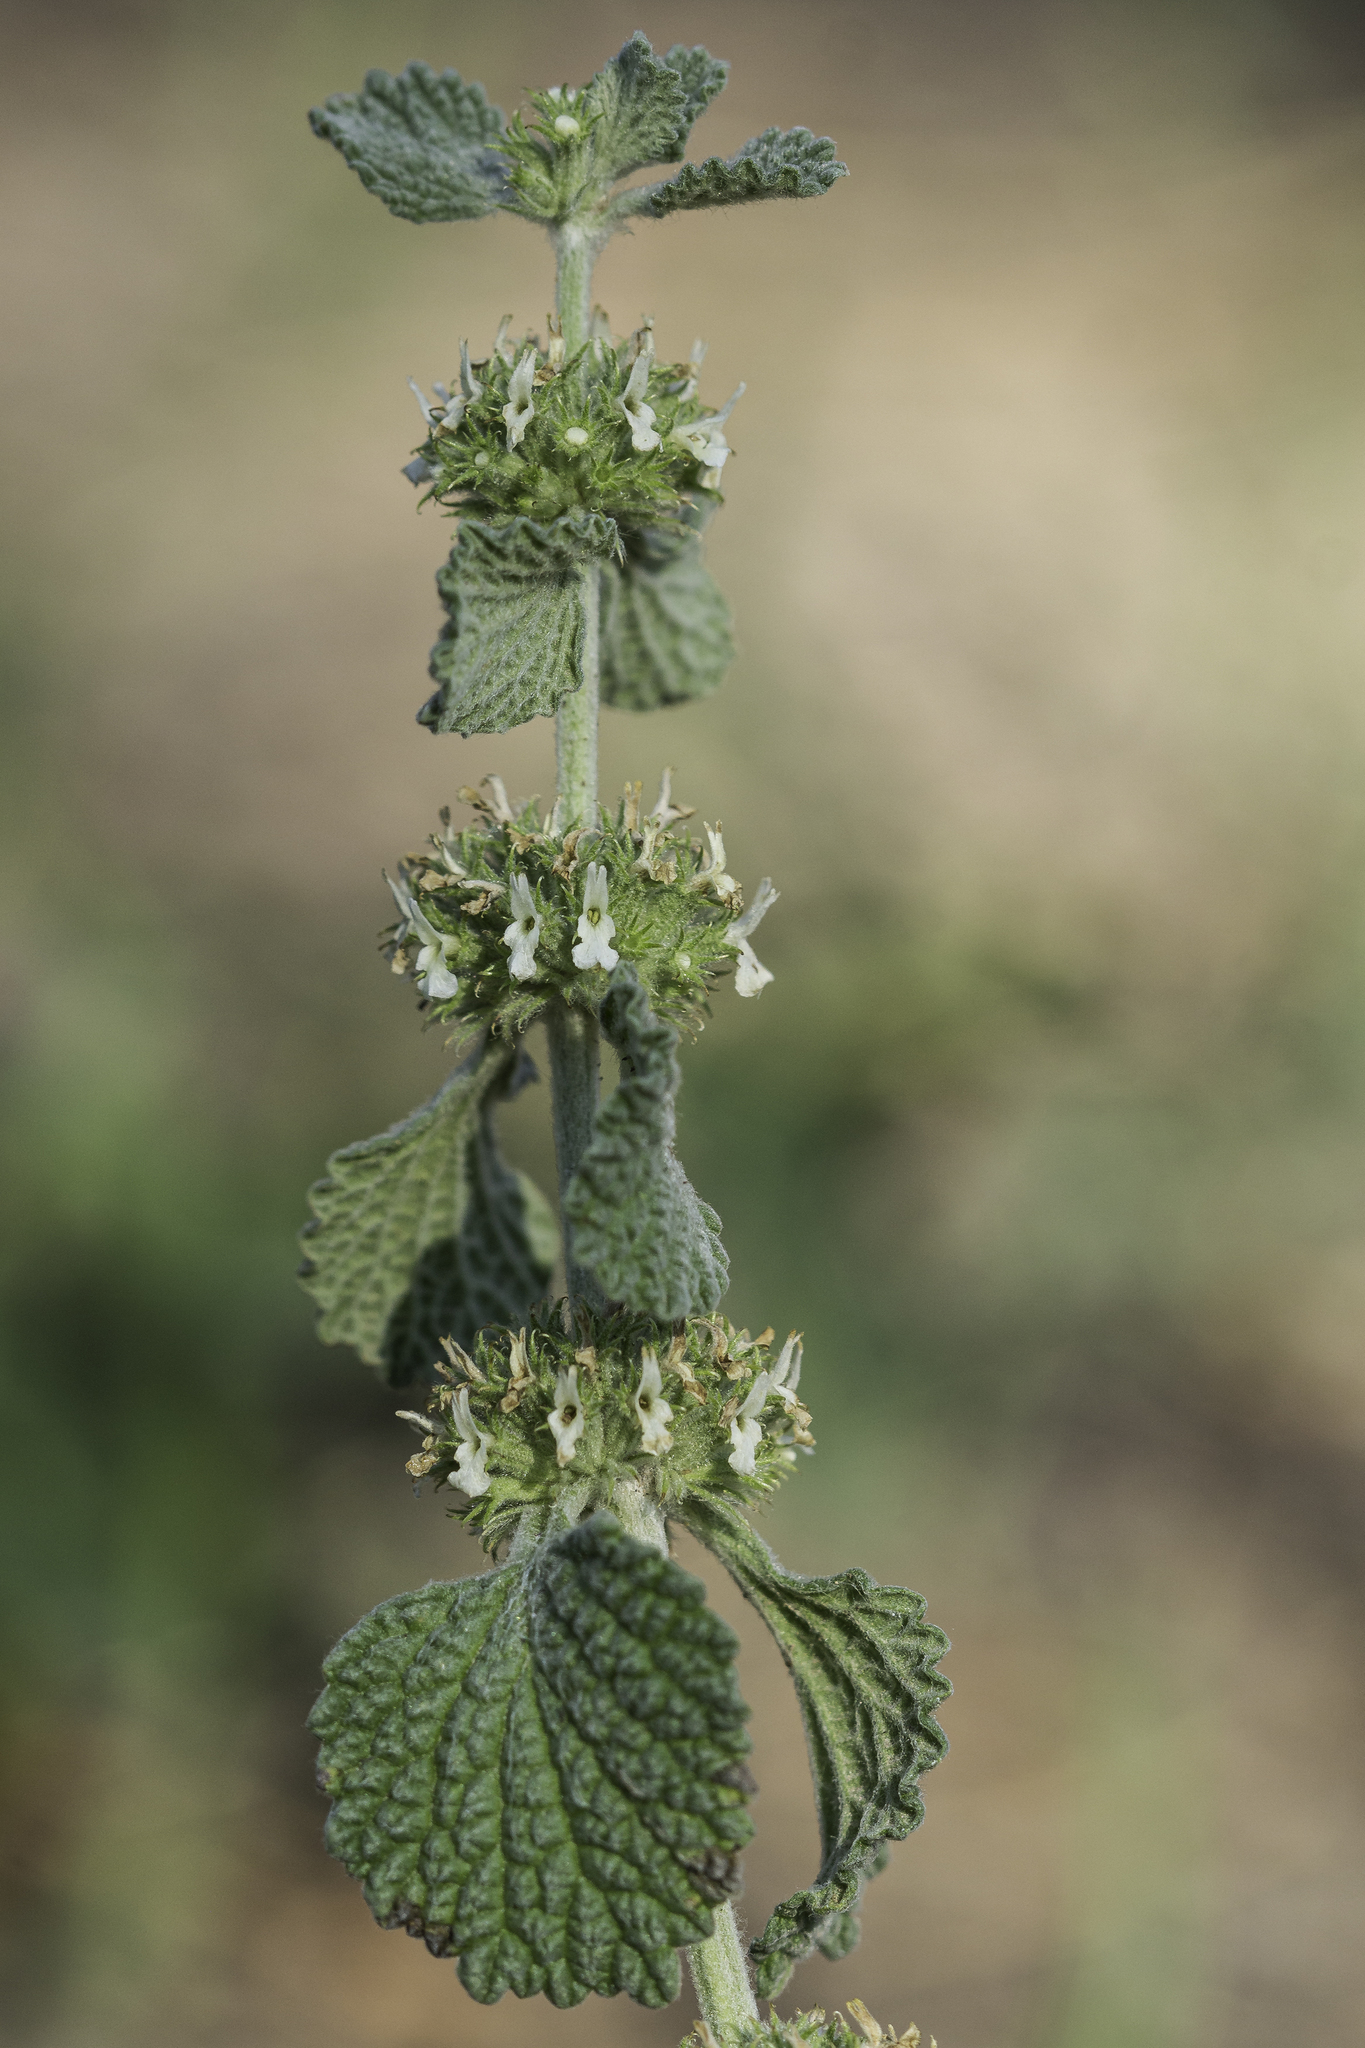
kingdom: Plantae
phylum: Tracheophyta
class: Magnoliopsida
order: Lamiales
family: Lamiaceae
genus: Marrubium
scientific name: Marrubium vulgare
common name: Horehound
